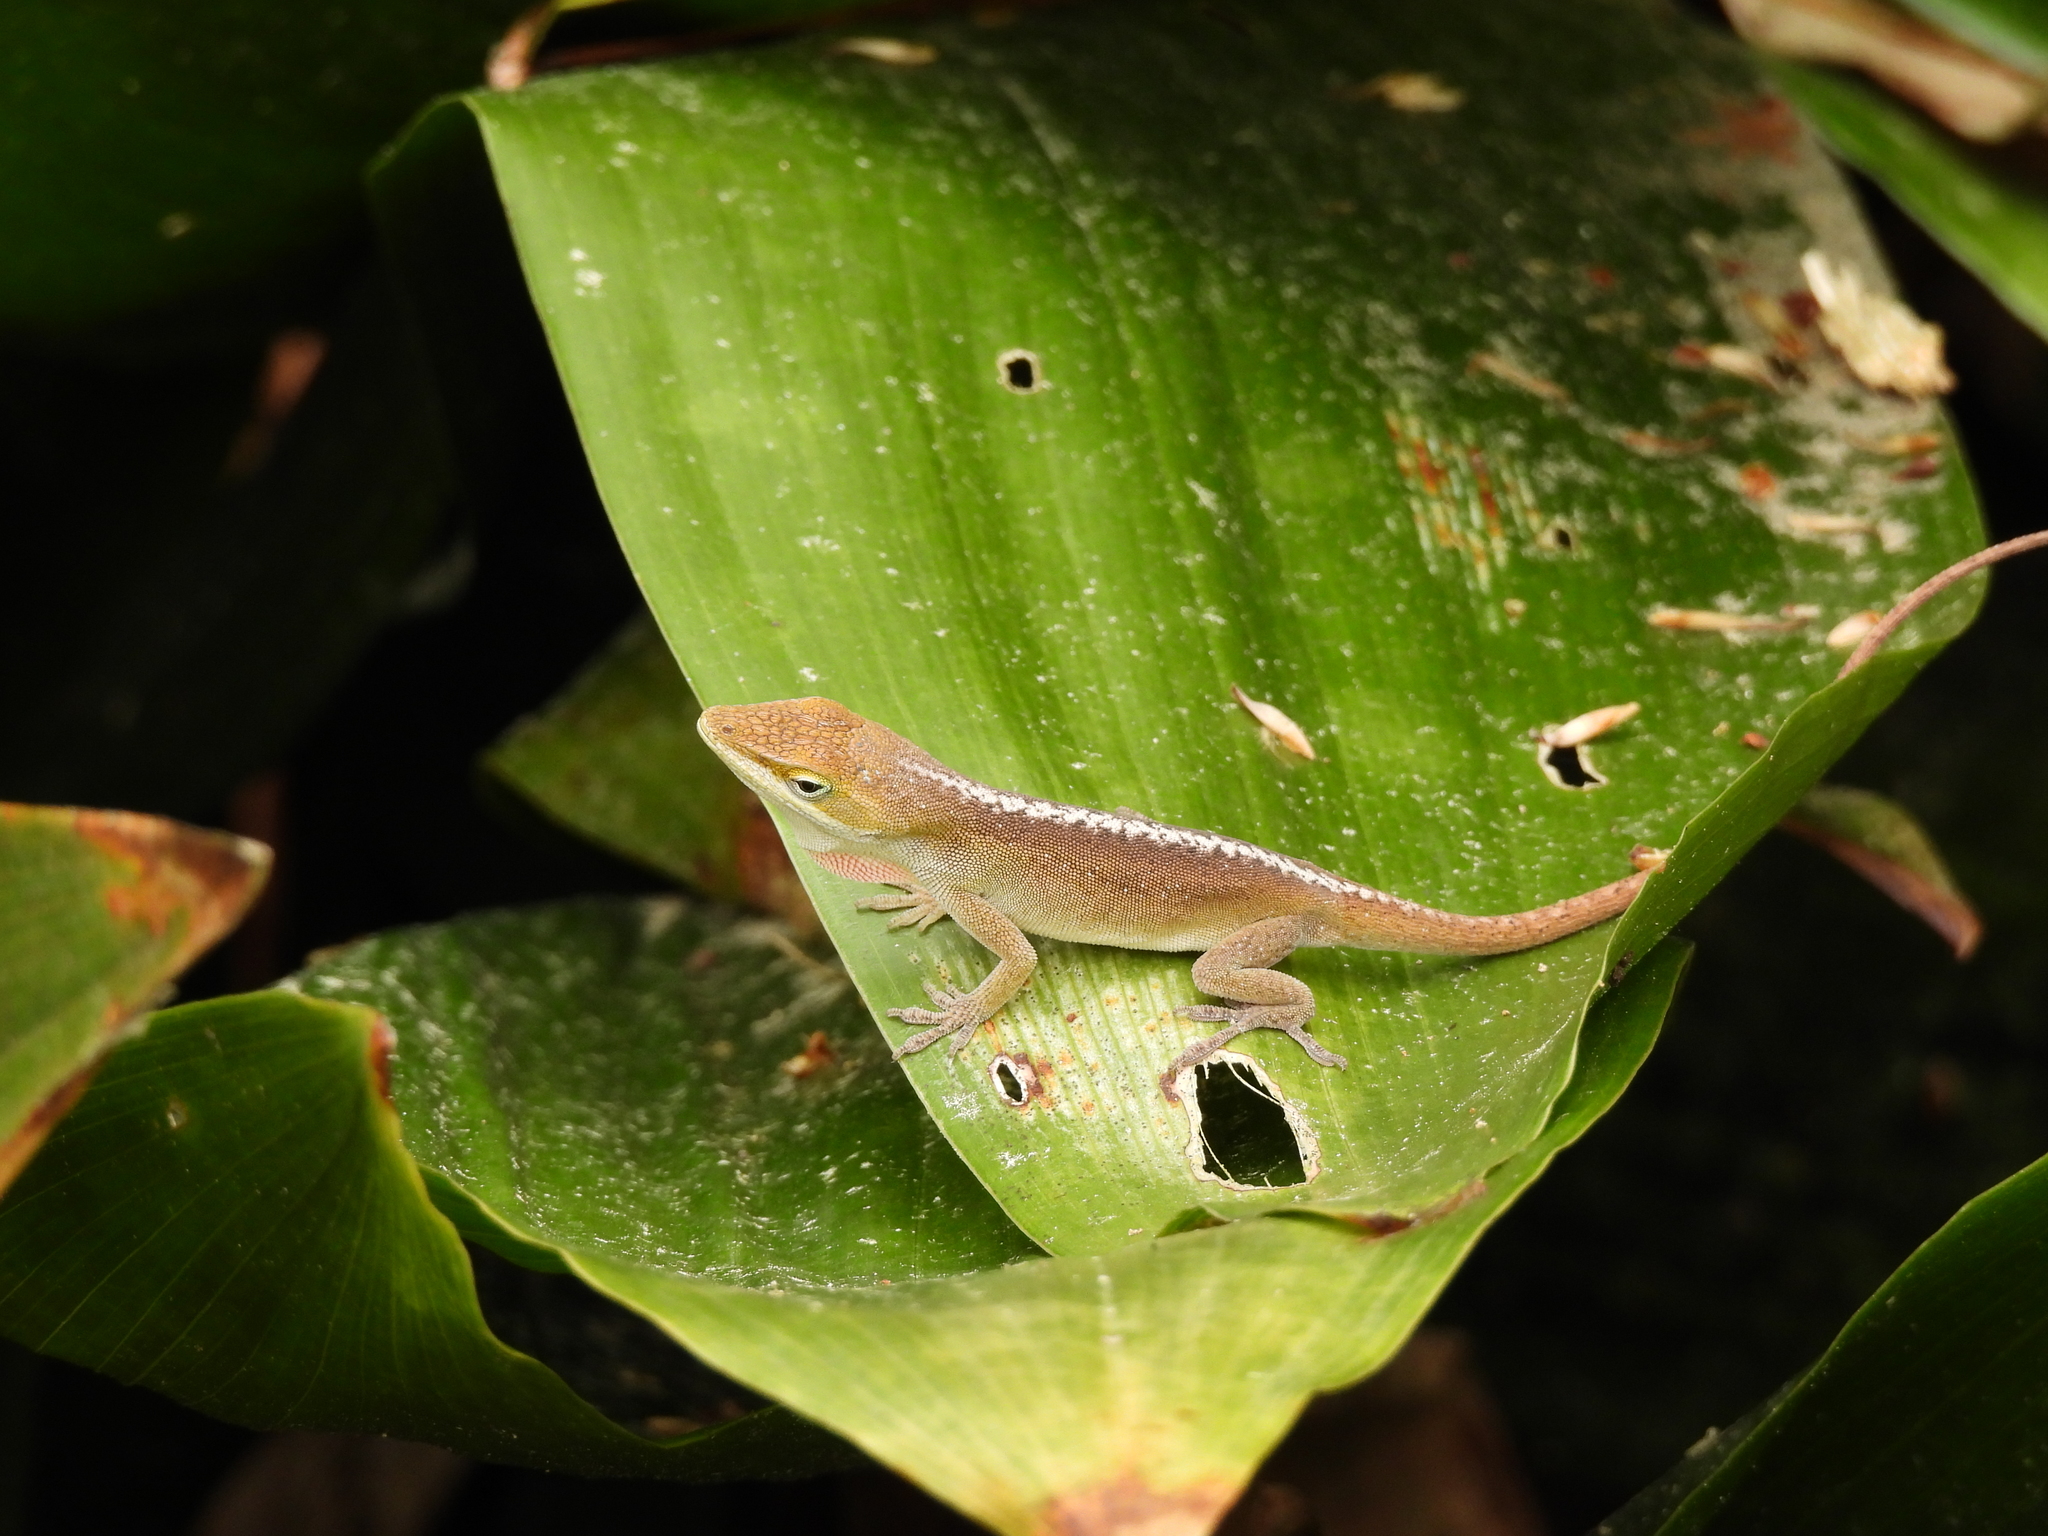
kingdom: Animalia
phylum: Chordata
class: Squamata
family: Dactyloidae
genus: Anolis
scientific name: Anolis carolinensis
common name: Green anole
